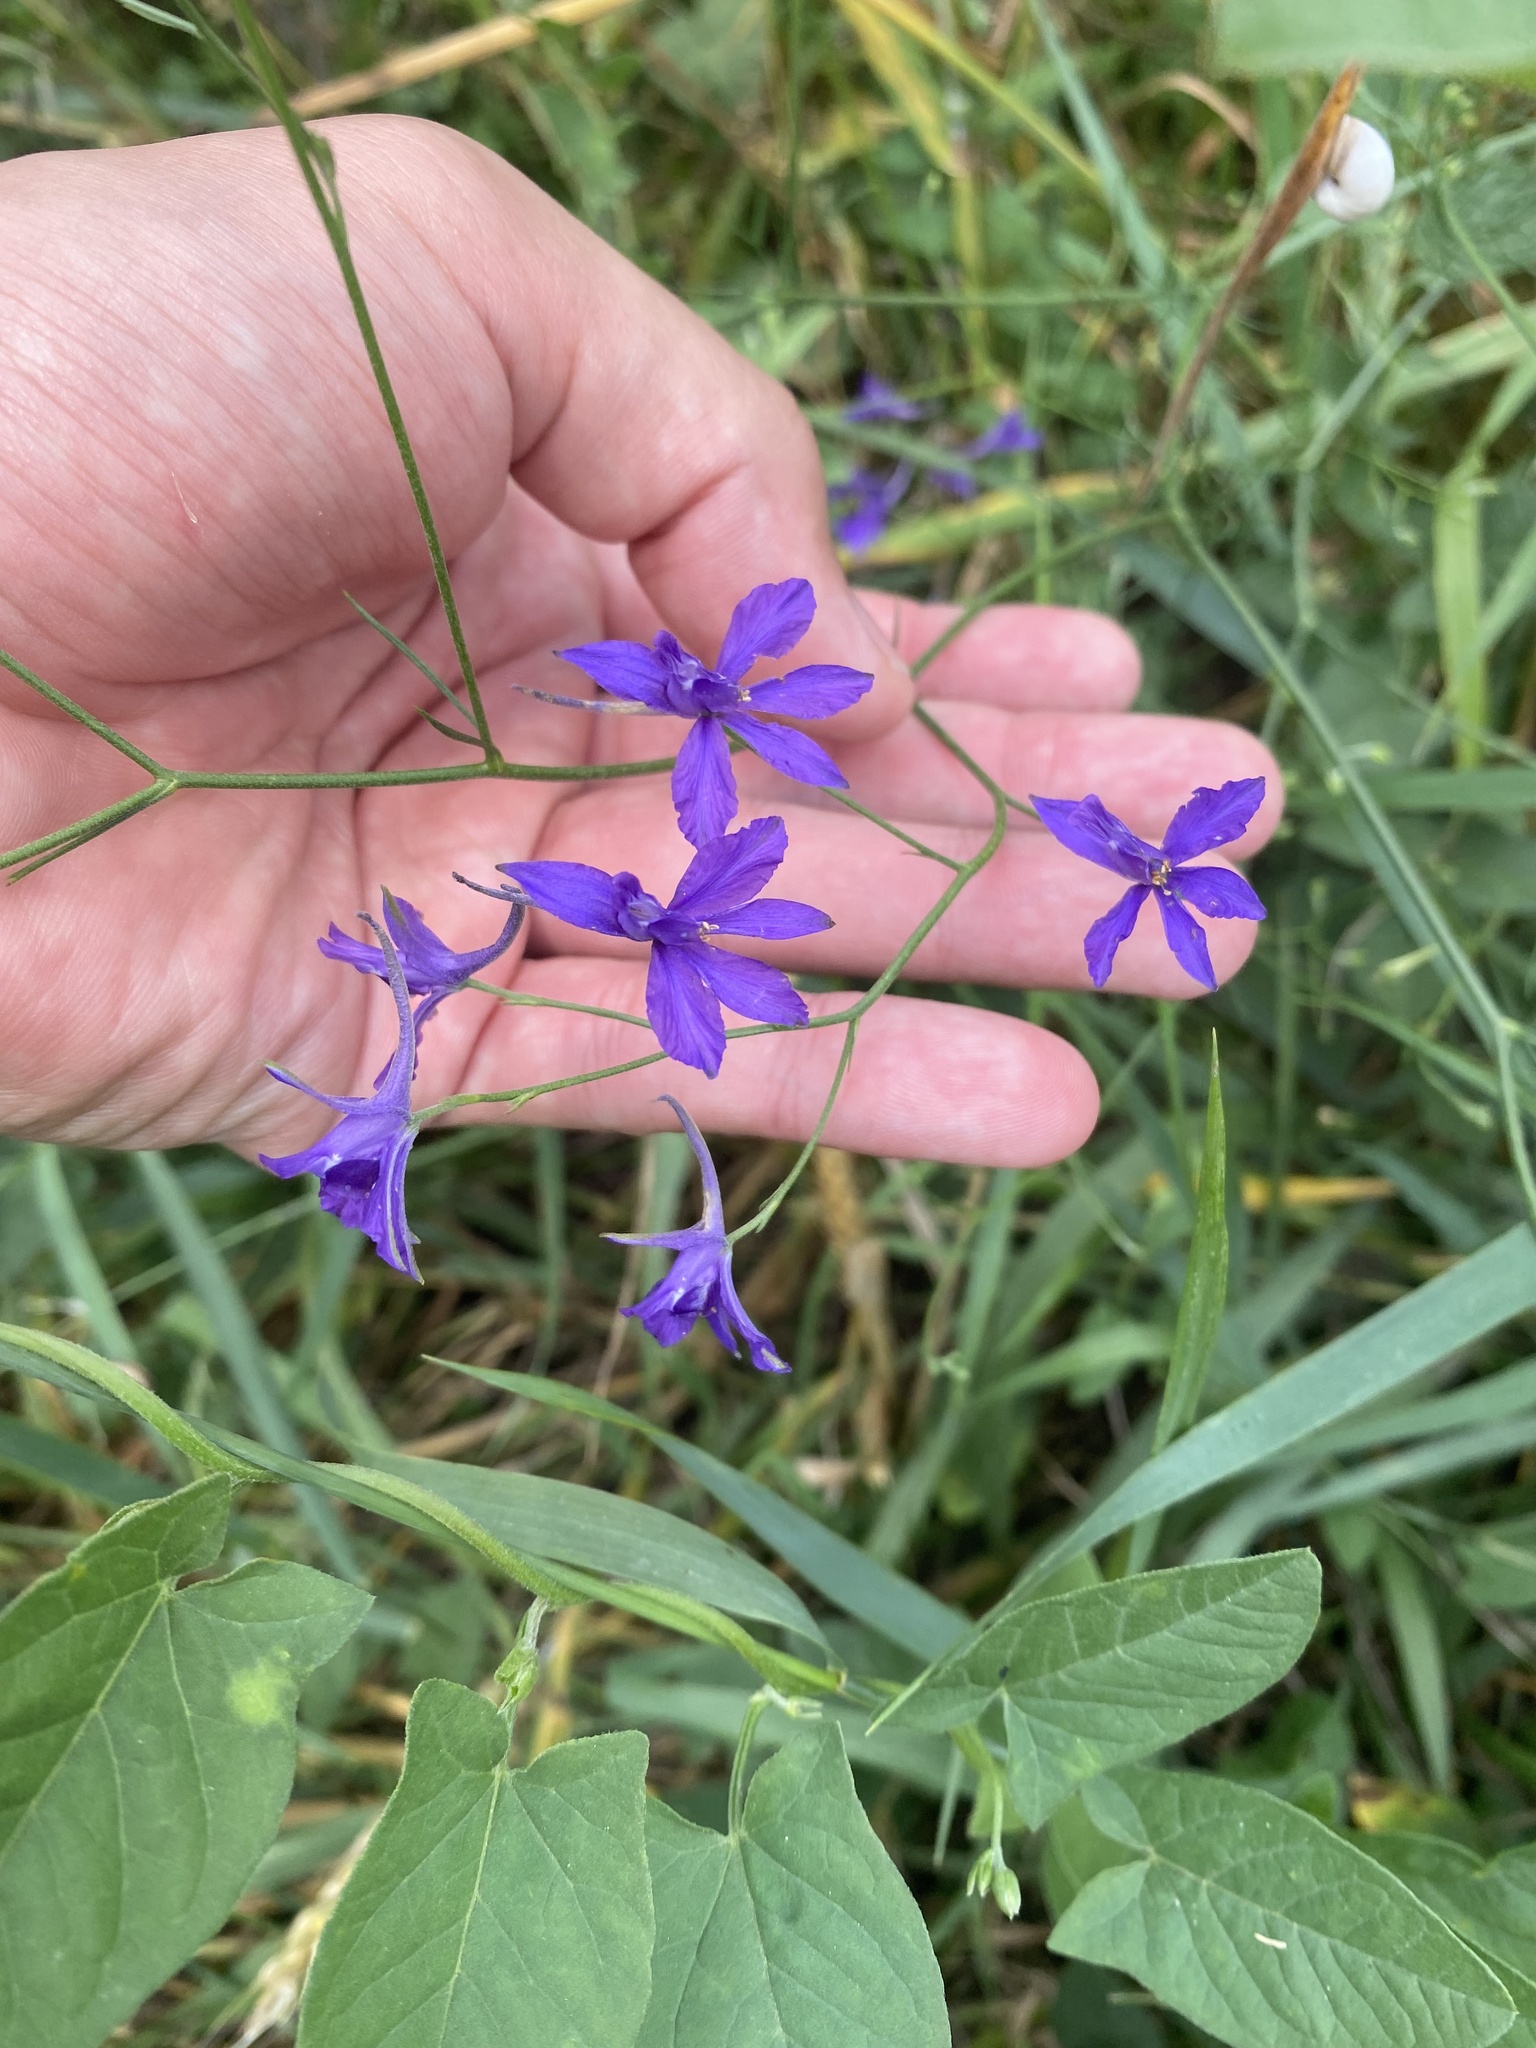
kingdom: Plantae
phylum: Tracheophyta
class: Magnoliopsida
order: Ranunculales
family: Ranunculaceae
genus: Delphinium
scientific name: Delphinium consolida
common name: Branching larkspur
